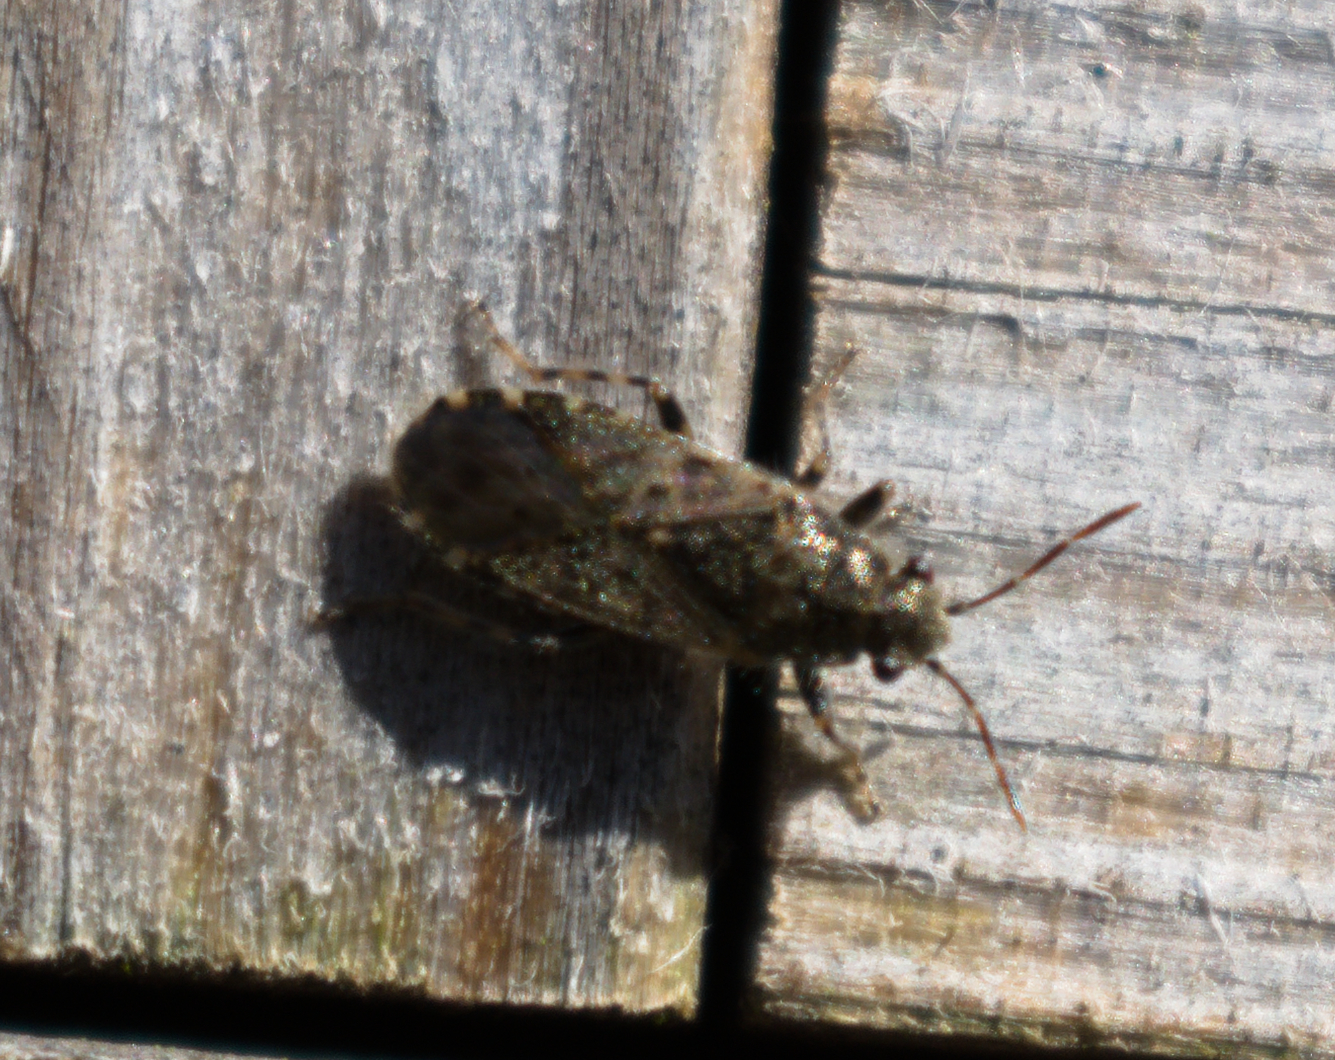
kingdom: Animalia
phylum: Arthropoda
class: Insecta
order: Hemiptera
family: Heterogastridae
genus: Heterogaster
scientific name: Heterogaster urticae
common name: Seed bug
